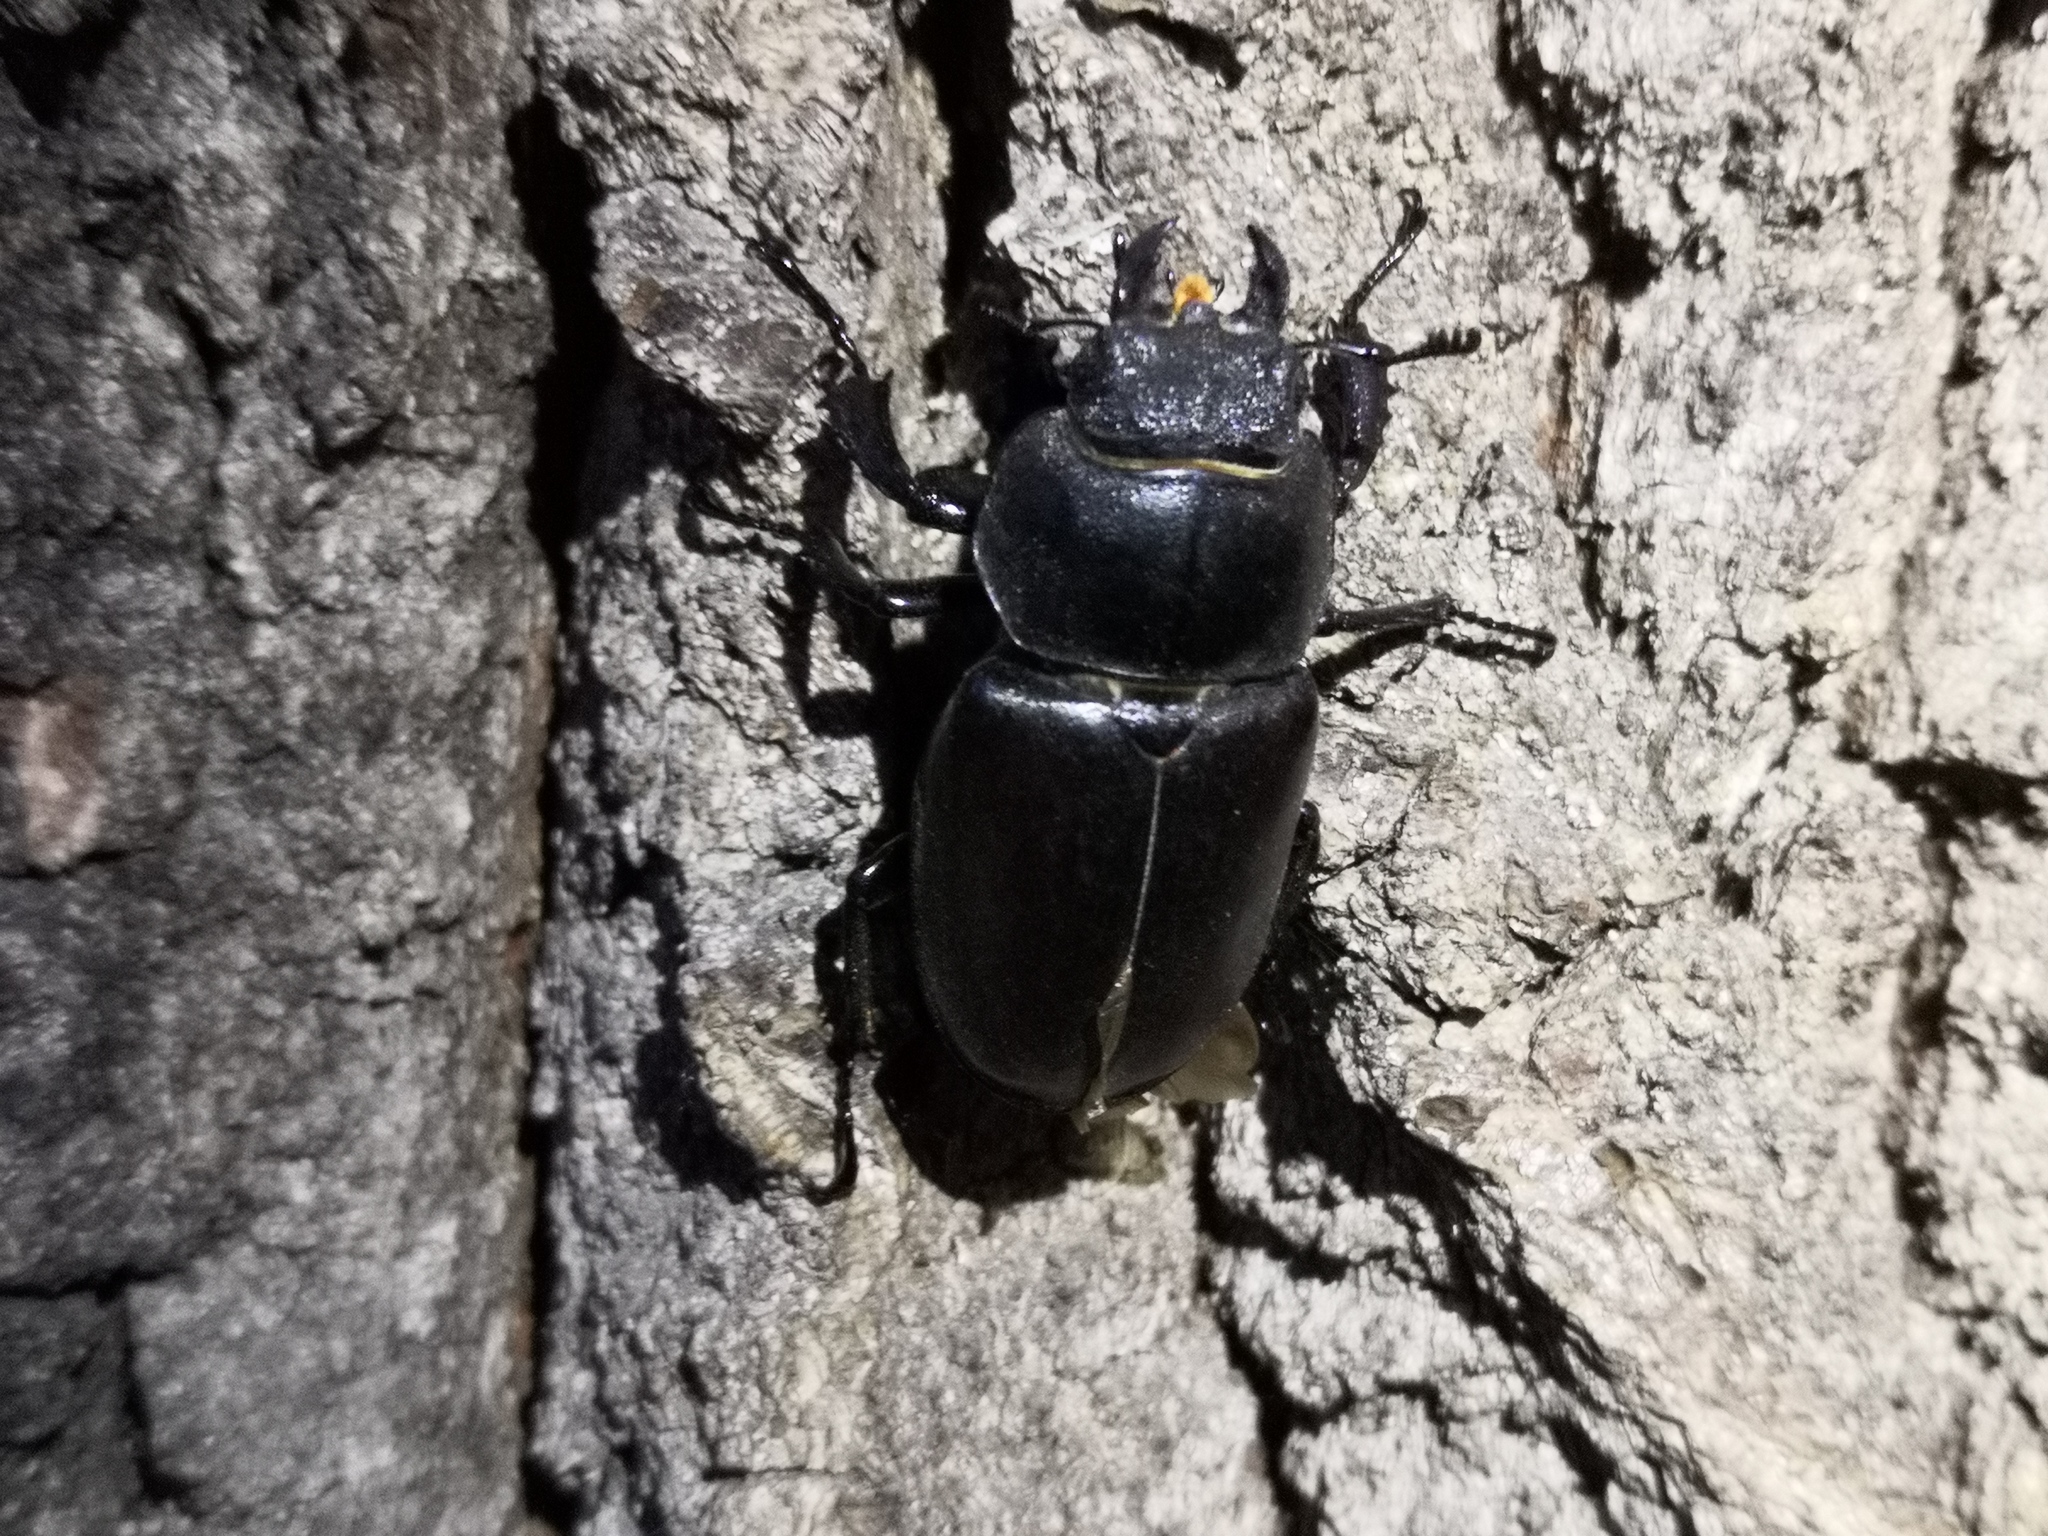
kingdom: Animalia
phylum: Arthropoda
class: Insecta
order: Coleoptera
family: Lucanidae
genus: Lucanus
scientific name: Lucanus cervus
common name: Stag beetle
